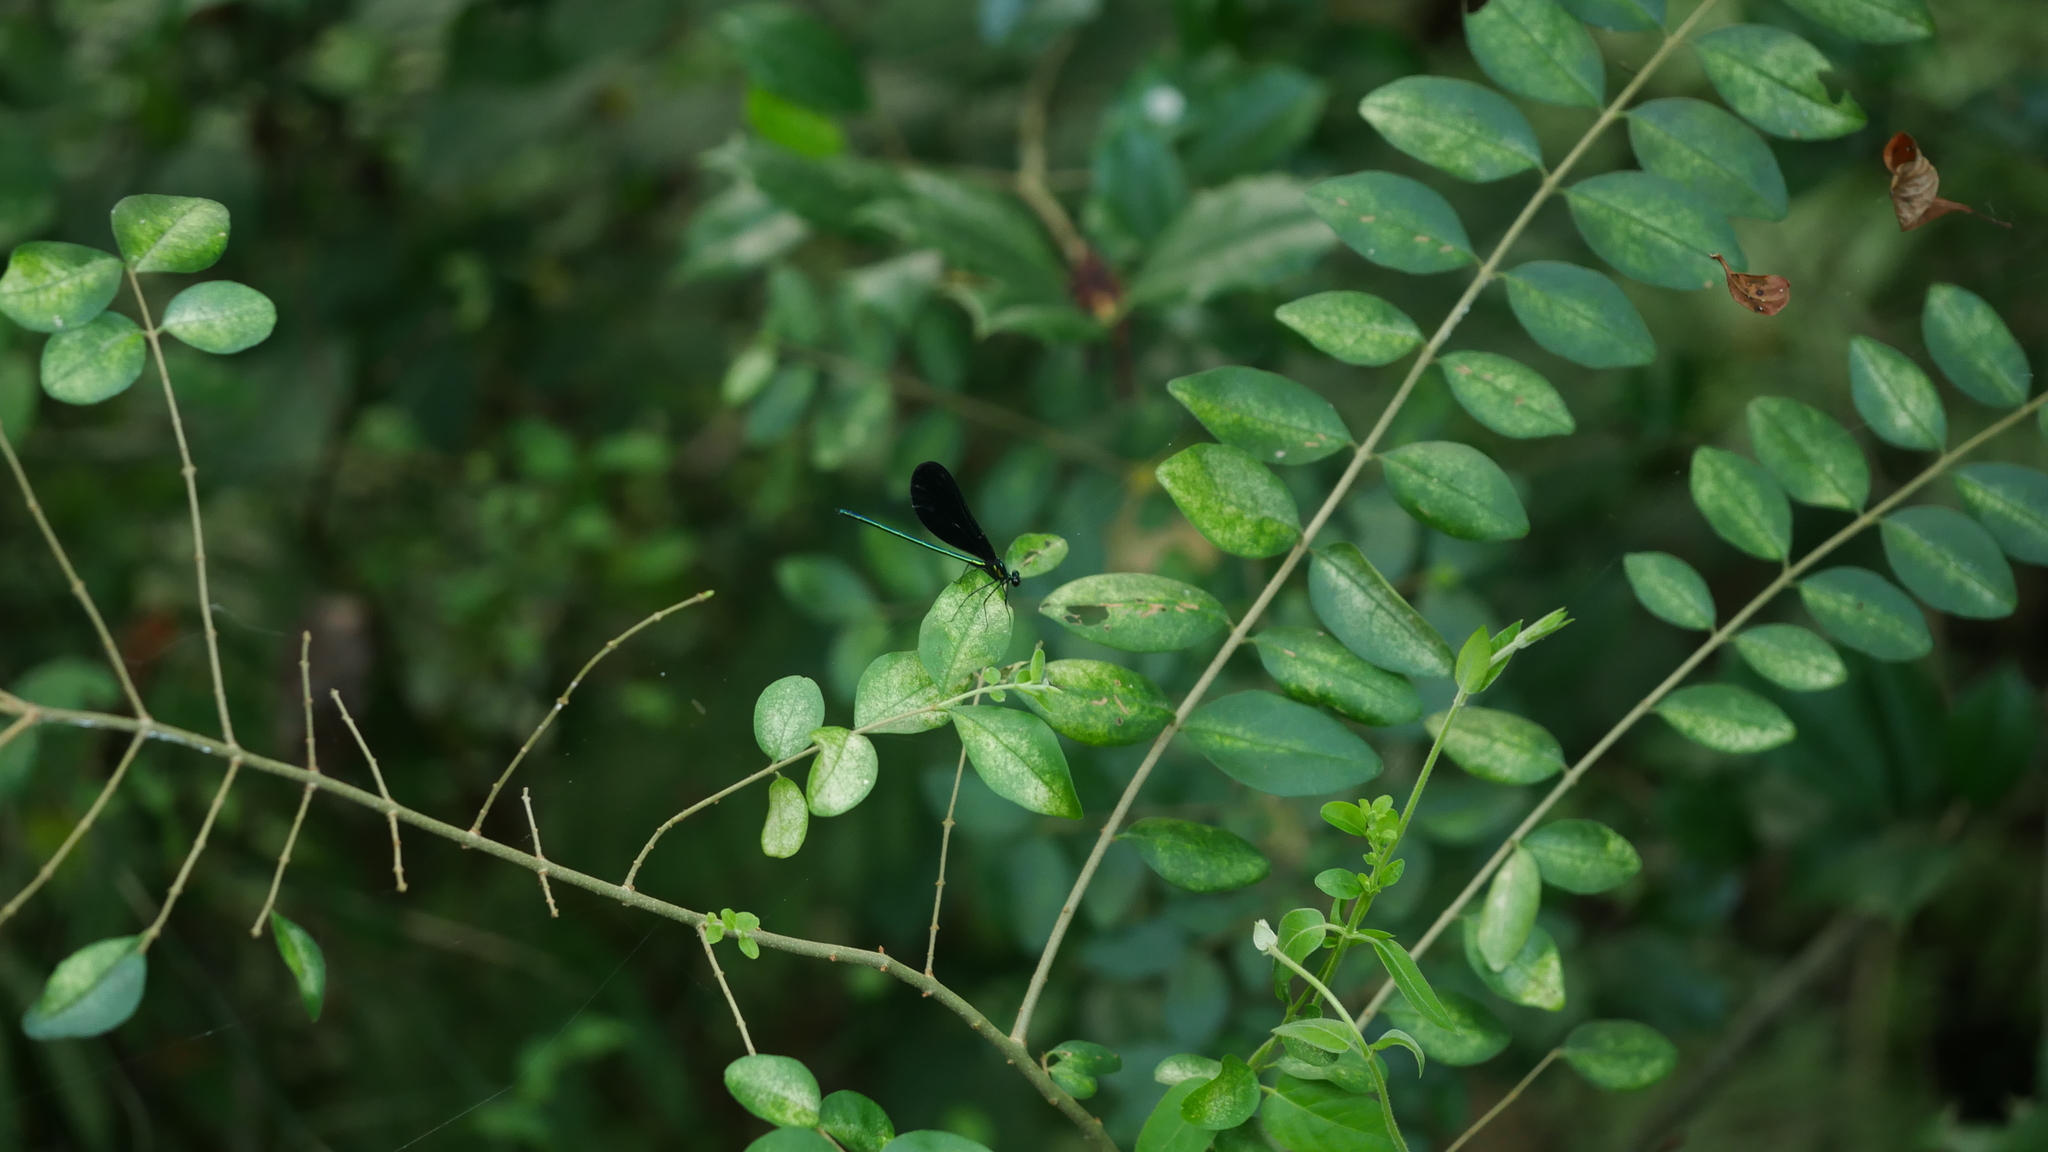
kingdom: Animalia
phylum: Arthropoda
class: Insecta
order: Odonata
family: Calopterygidae
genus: Calopteryx
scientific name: Calopteryx maculata
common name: Ebony jewelwing
